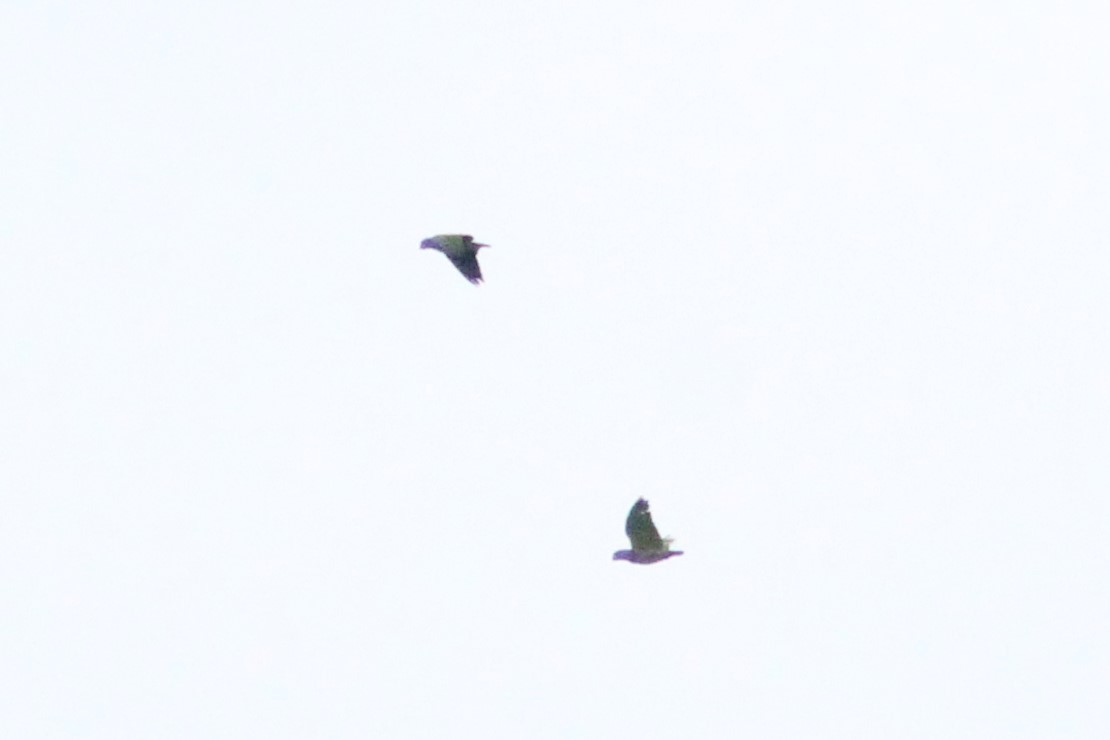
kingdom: Animalia
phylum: Chordata
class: Aves
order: Psittaciformes
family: Psittacidae
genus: Pionus
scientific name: Pionus menstruus
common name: Blue-headed parrot
